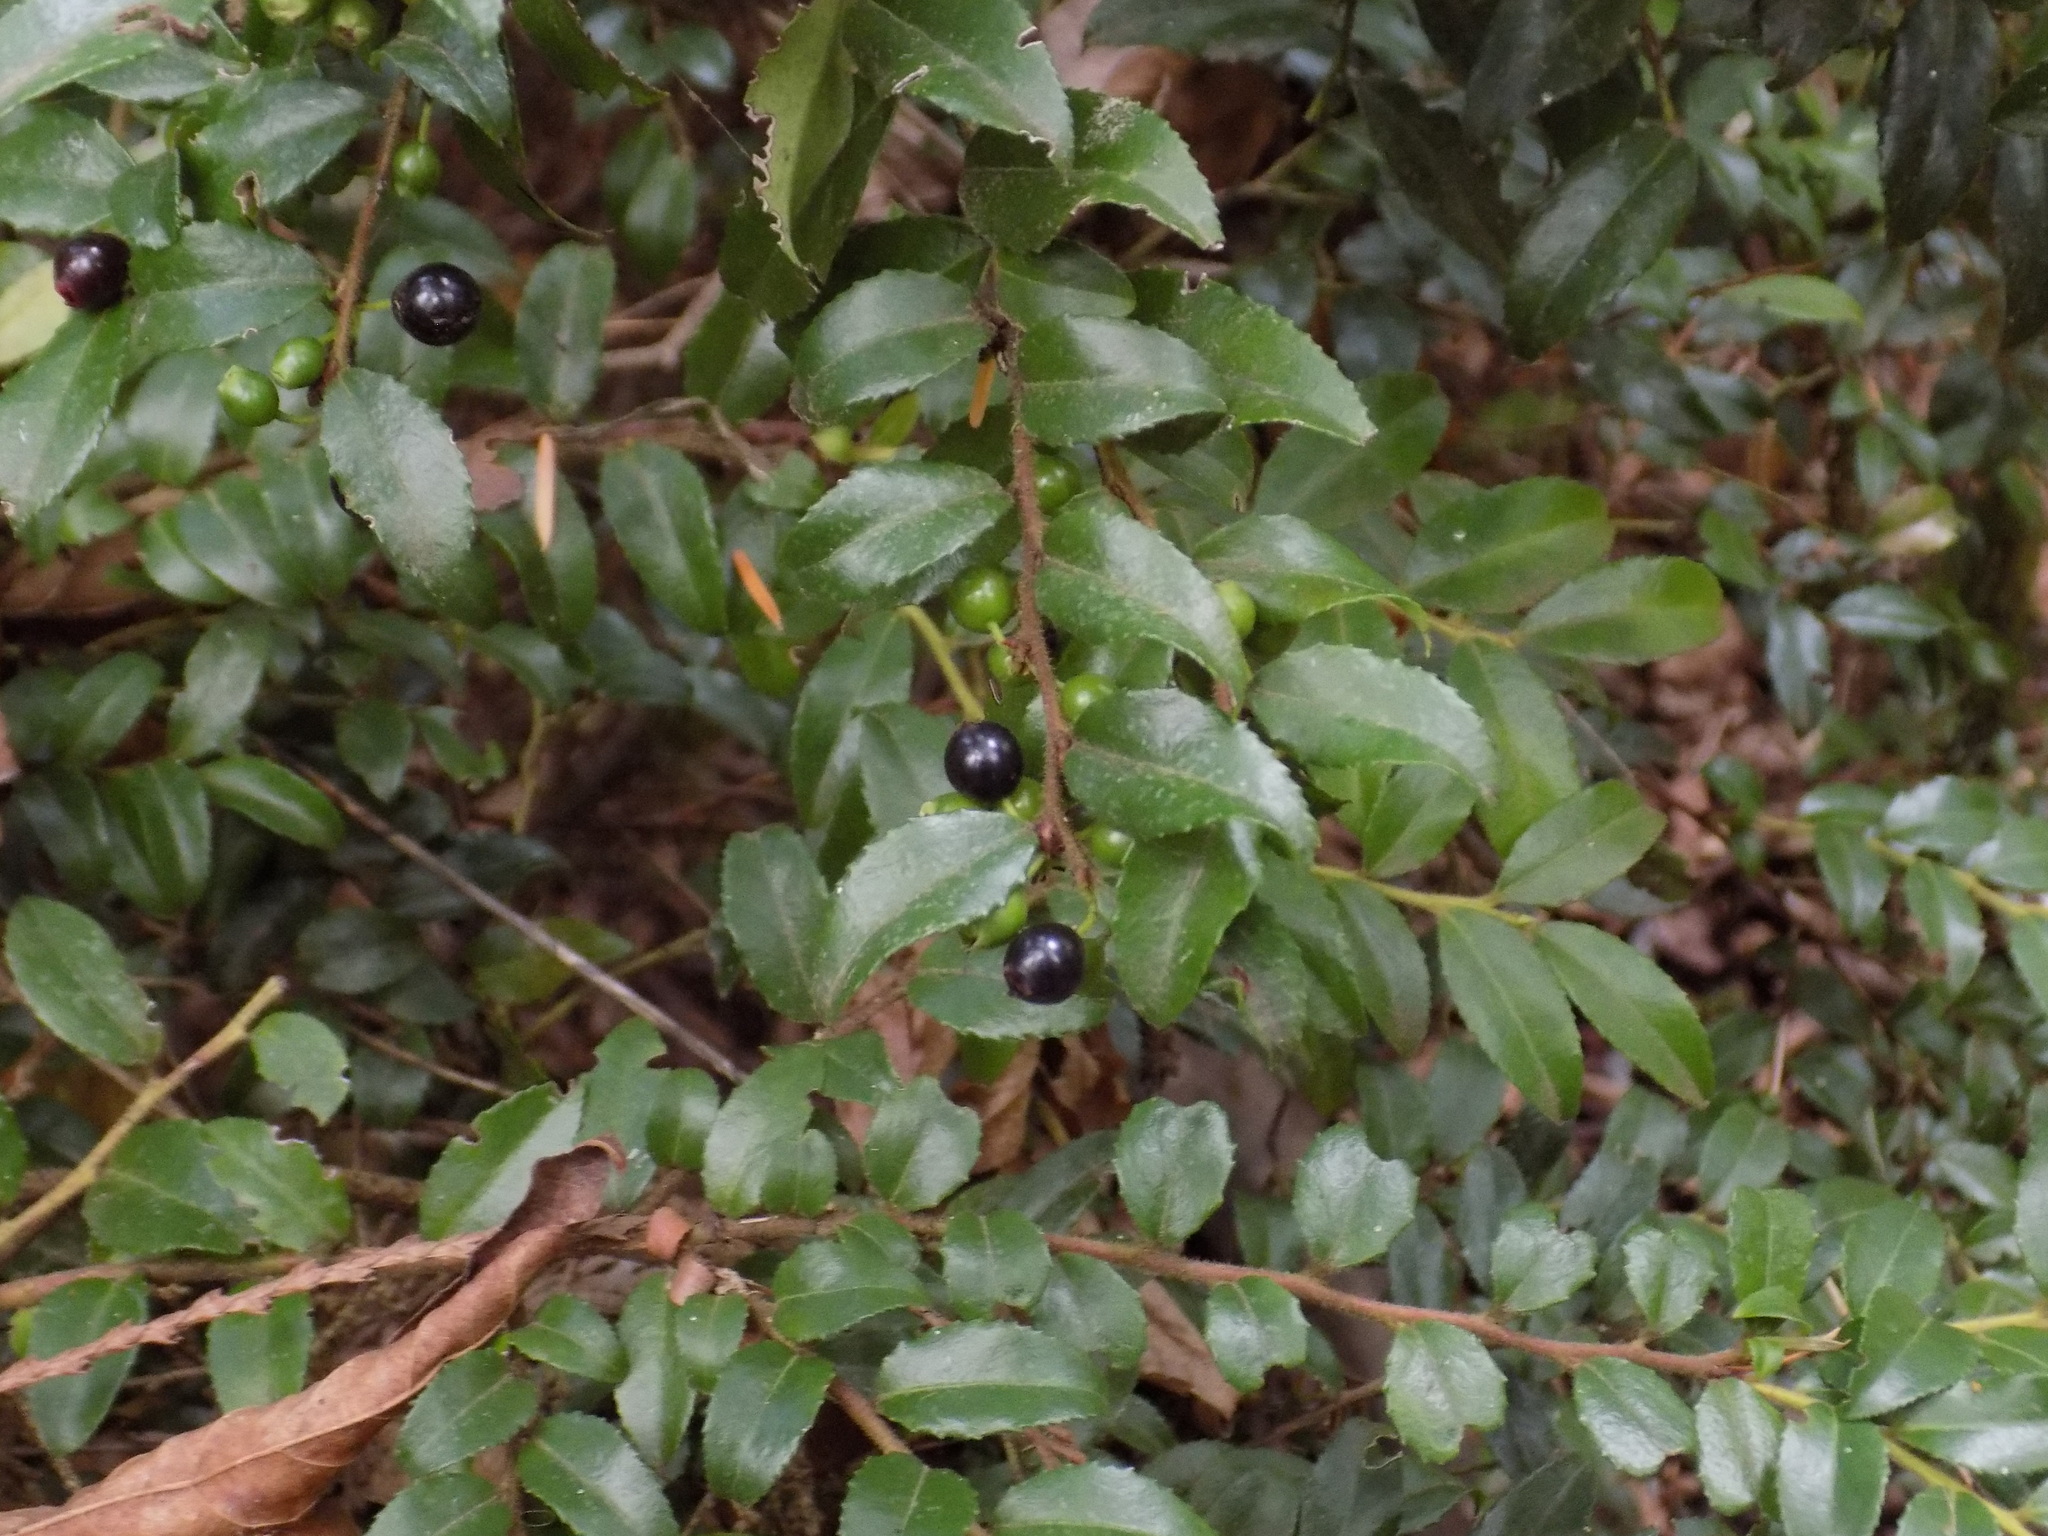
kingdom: Plantae
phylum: Tracheophyta
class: Magnoliopsida
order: Ericales
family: Ericaceae
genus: Vaccinium
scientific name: Vaccinium ovatum
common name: California-huckleberry
